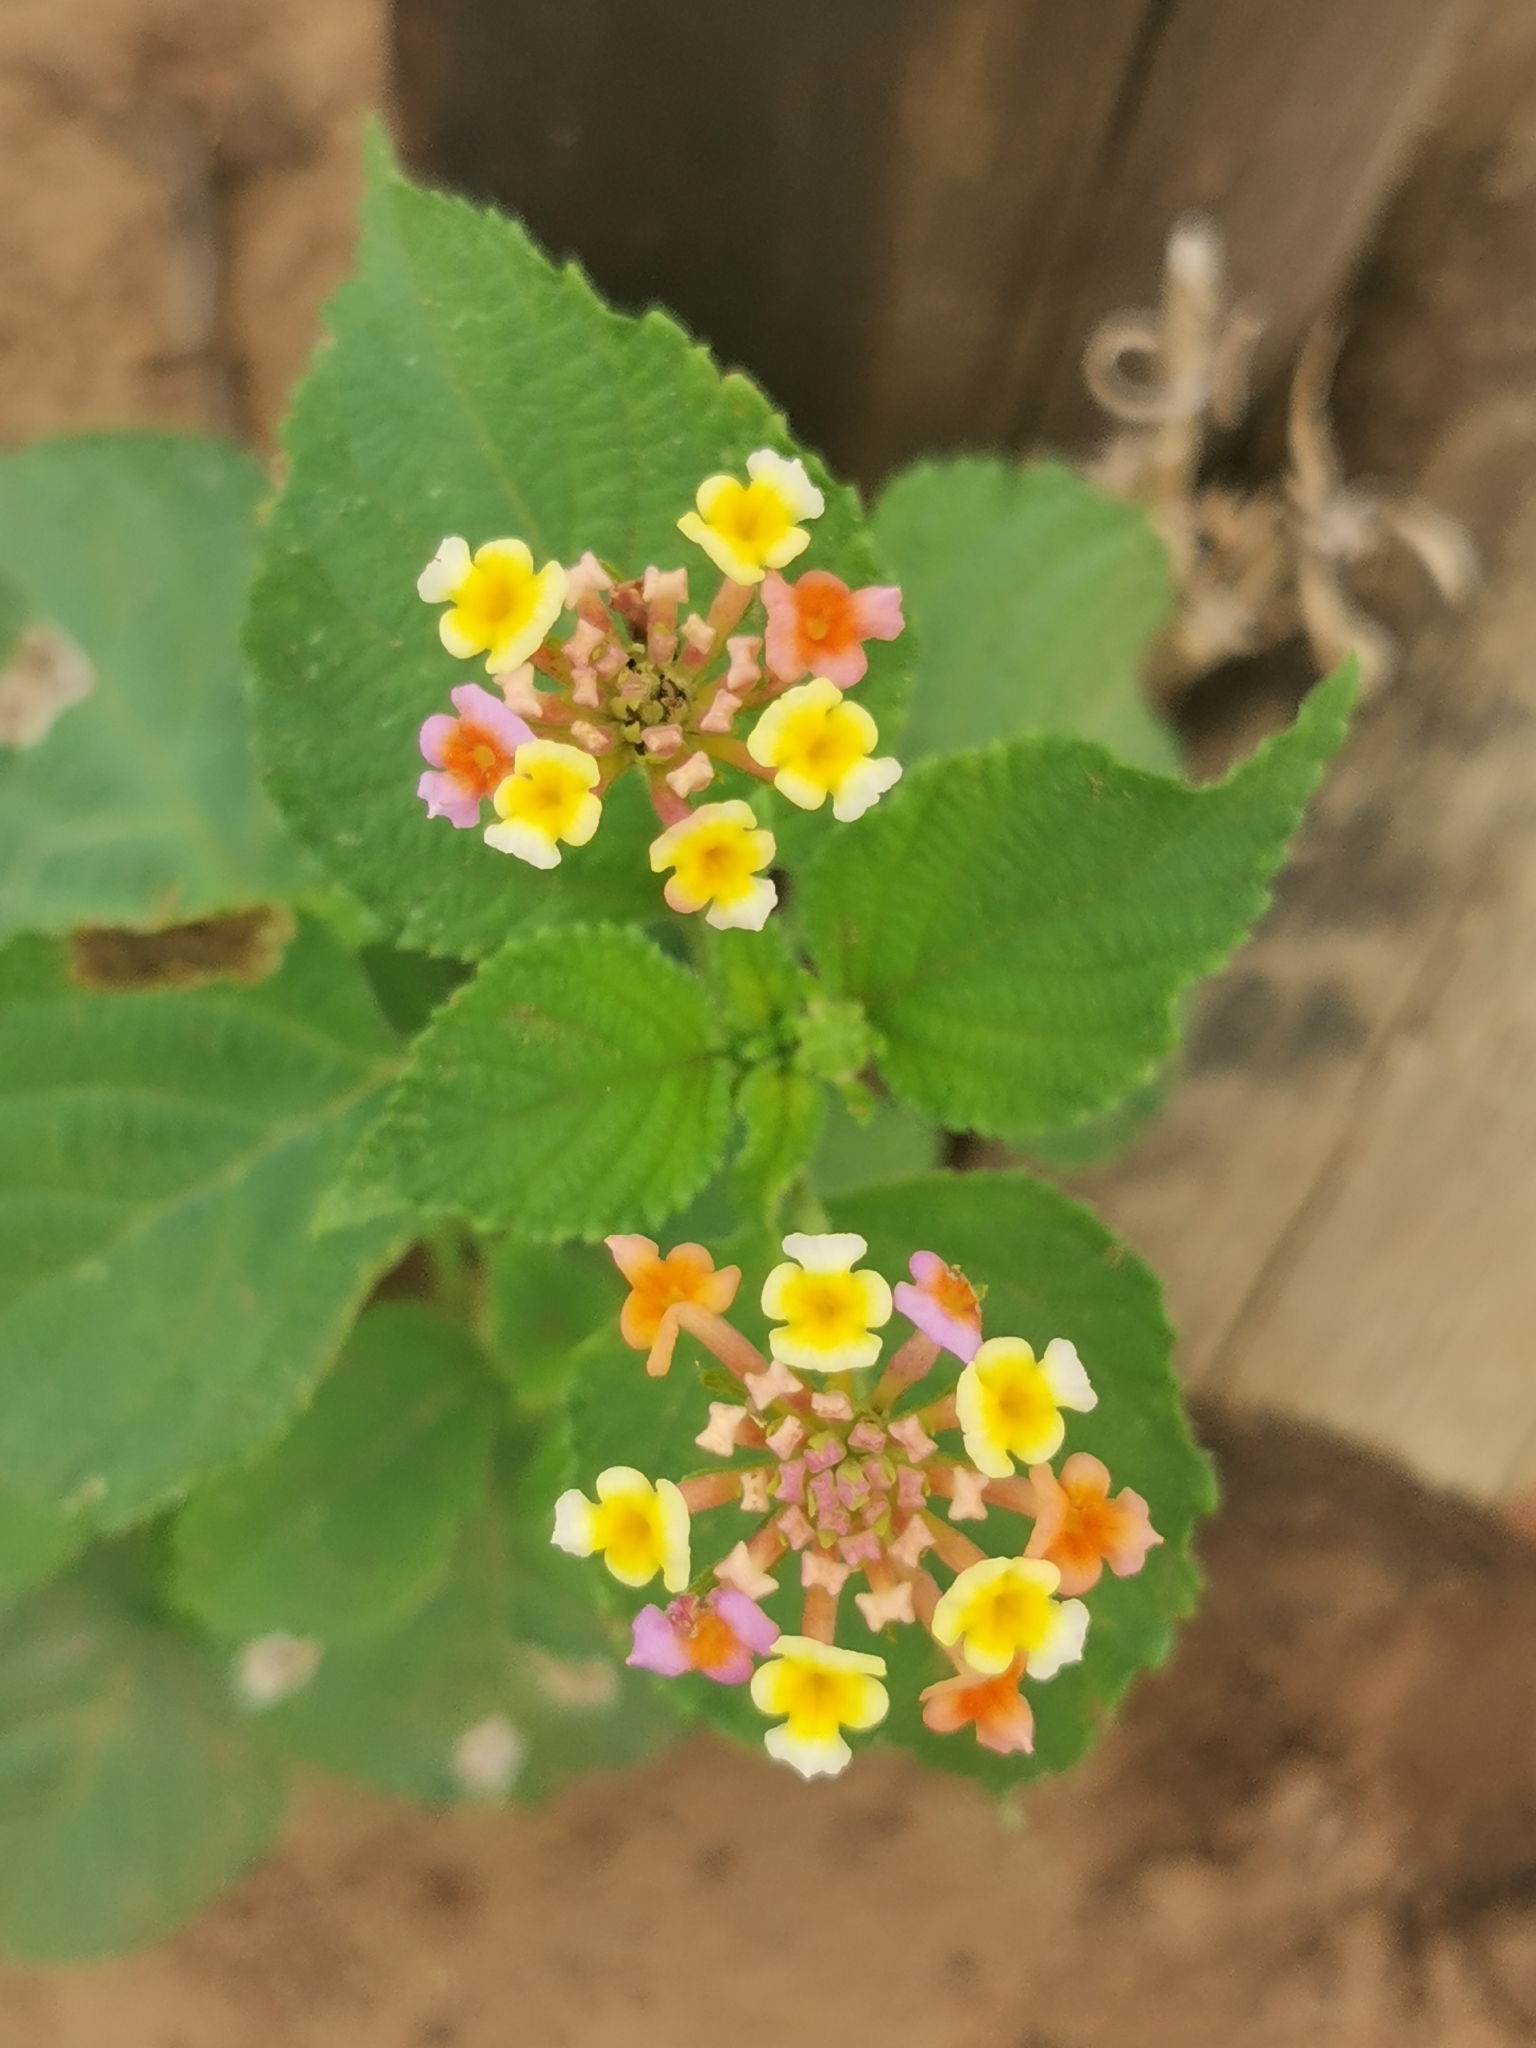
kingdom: Plantae
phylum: Tracheophyta
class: Magnoliopsida
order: Lamiales
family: Verbenaceae
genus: Lantana
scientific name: Lantana camara
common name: Lantana
